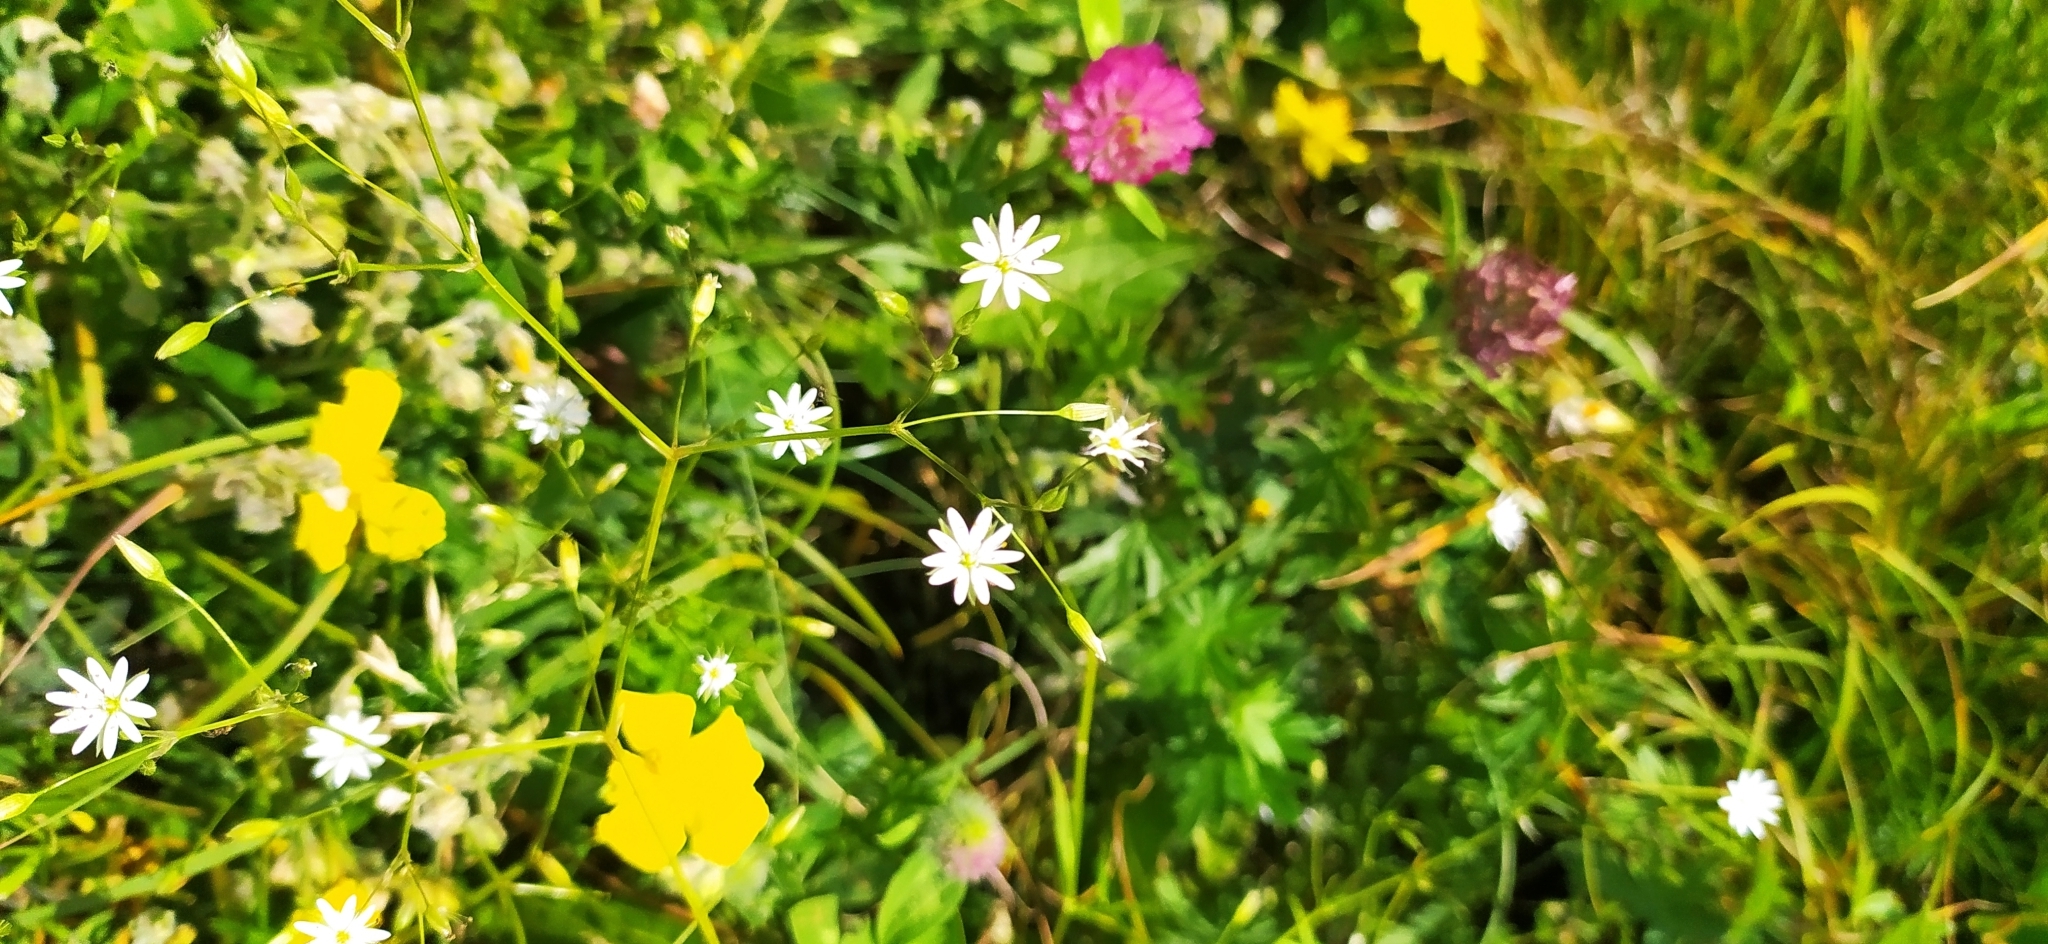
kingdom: Plantae
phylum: Tracheophyta
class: Magnoliopsida
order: Caryophyllales
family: Caryophyllaceae
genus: Stellaria
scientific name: Stellaria graminea
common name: Grass-like starwort
